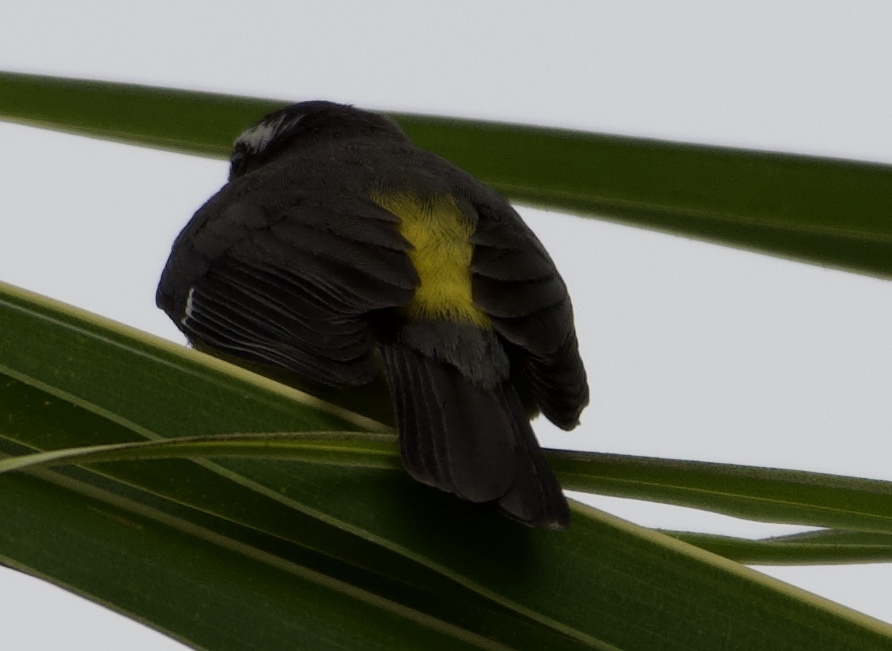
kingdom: Animalia
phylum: Chordata
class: Aves
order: Passeriformes
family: Thraupidae
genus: Coereba
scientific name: Coereba flaveola
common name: Bananaquit
